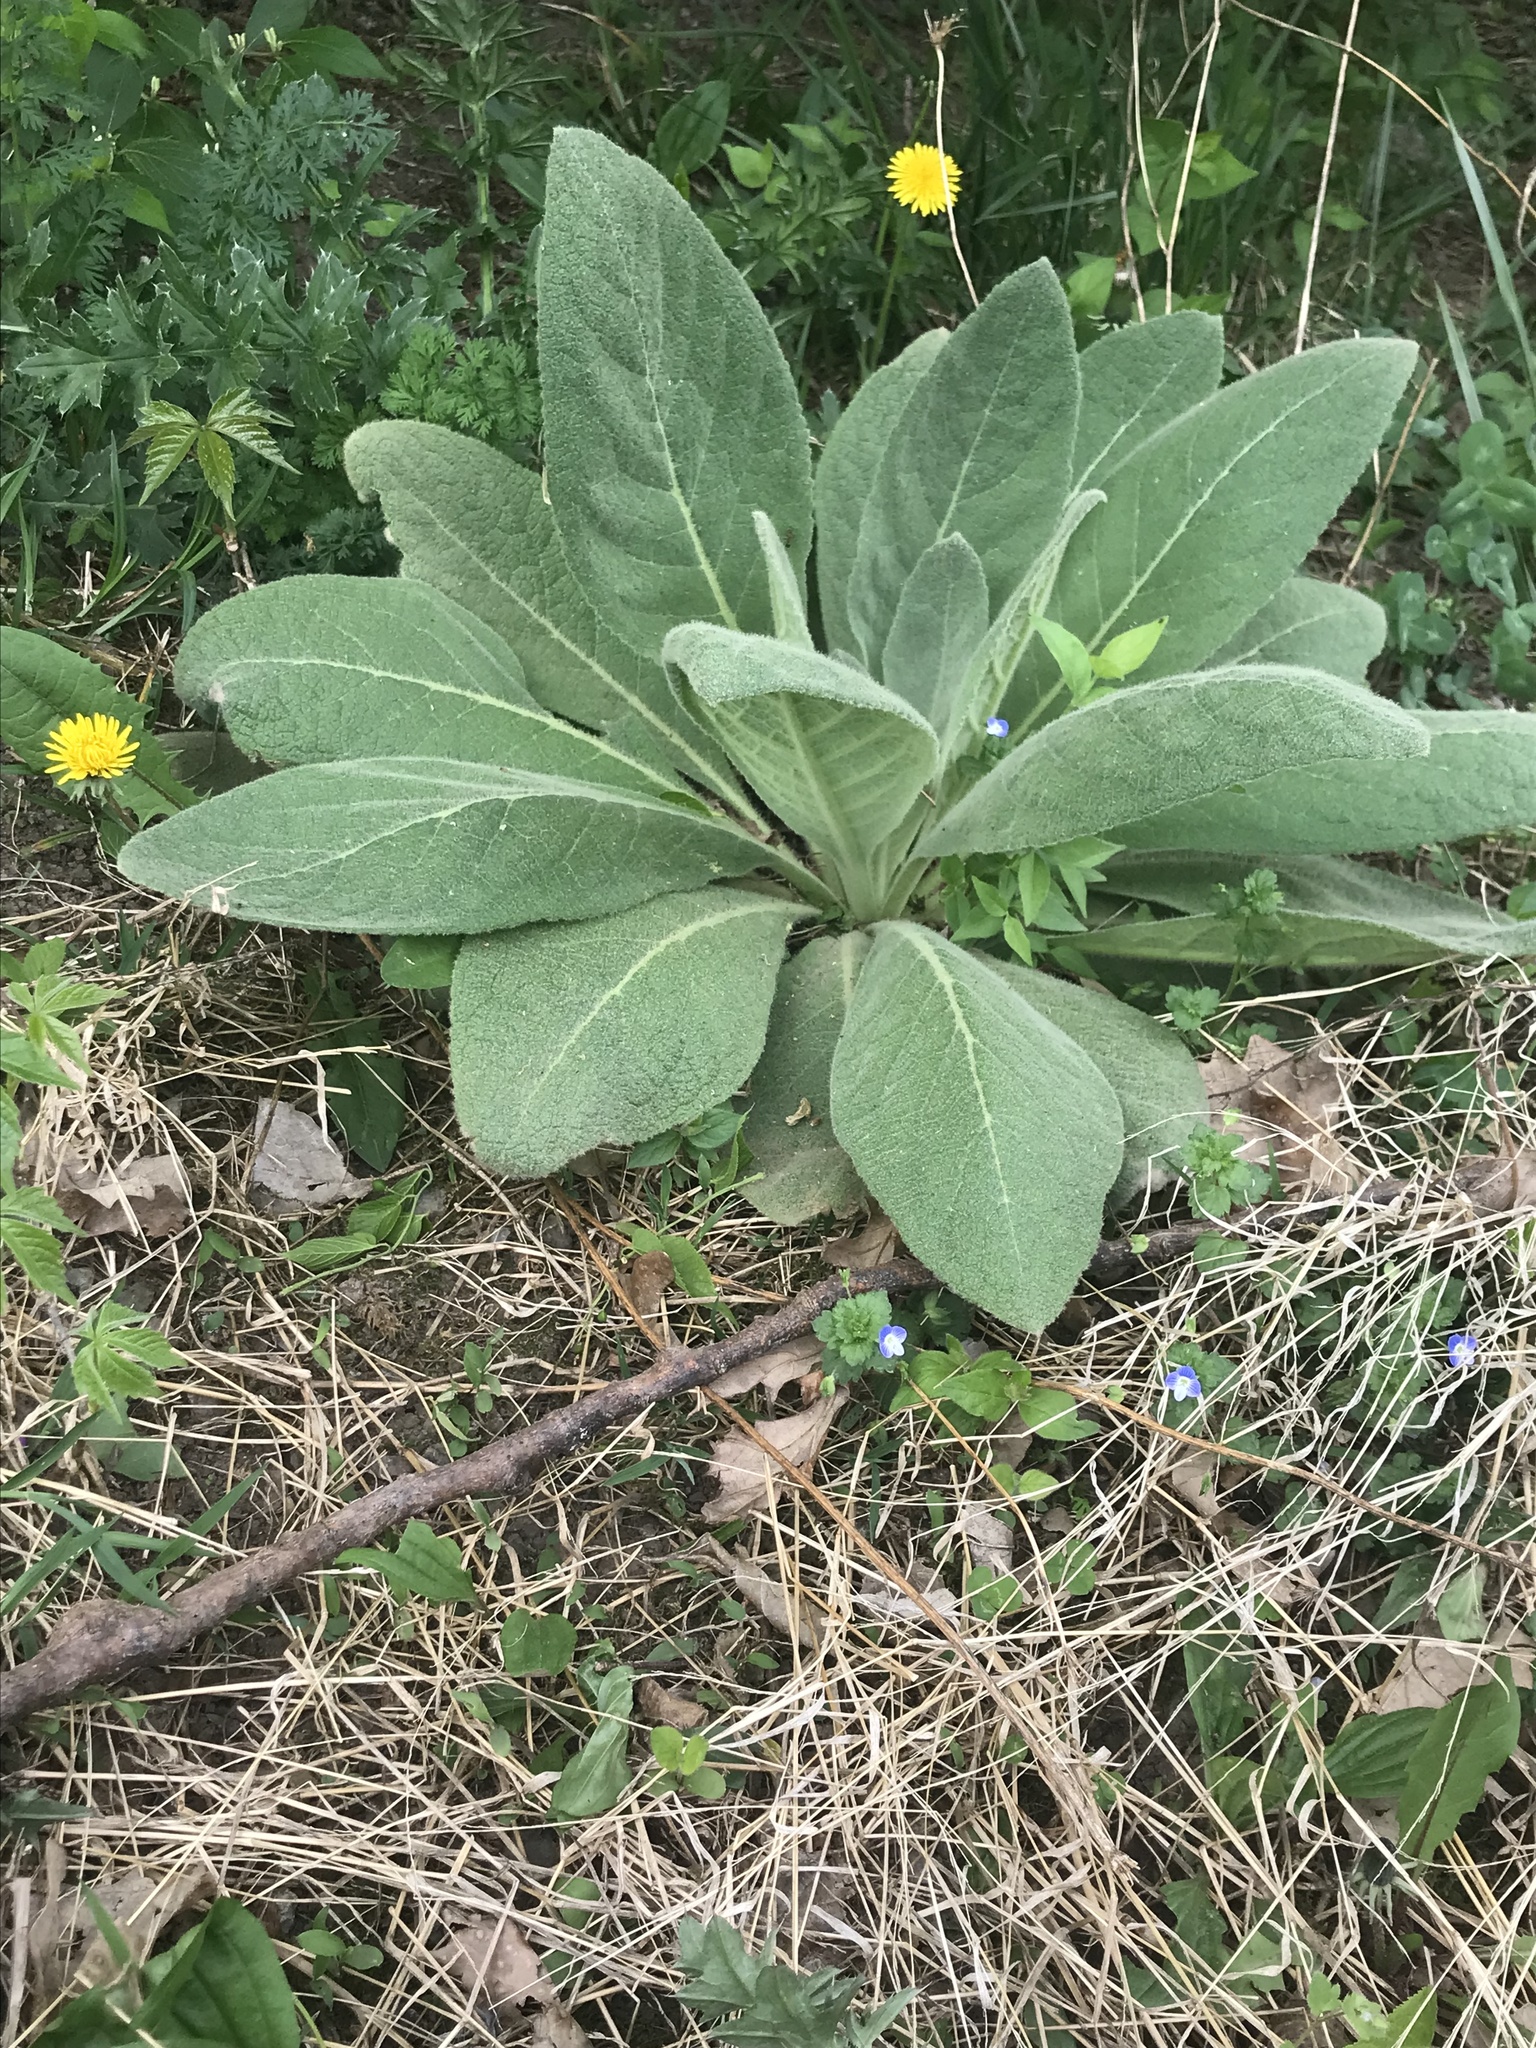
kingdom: Plantae
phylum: Tracheophyta
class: Magnoliopsida
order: Lamiales
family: Scrophulariaceae
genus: Verbascum
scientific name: Verbascum thapsus
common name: Common mullein
